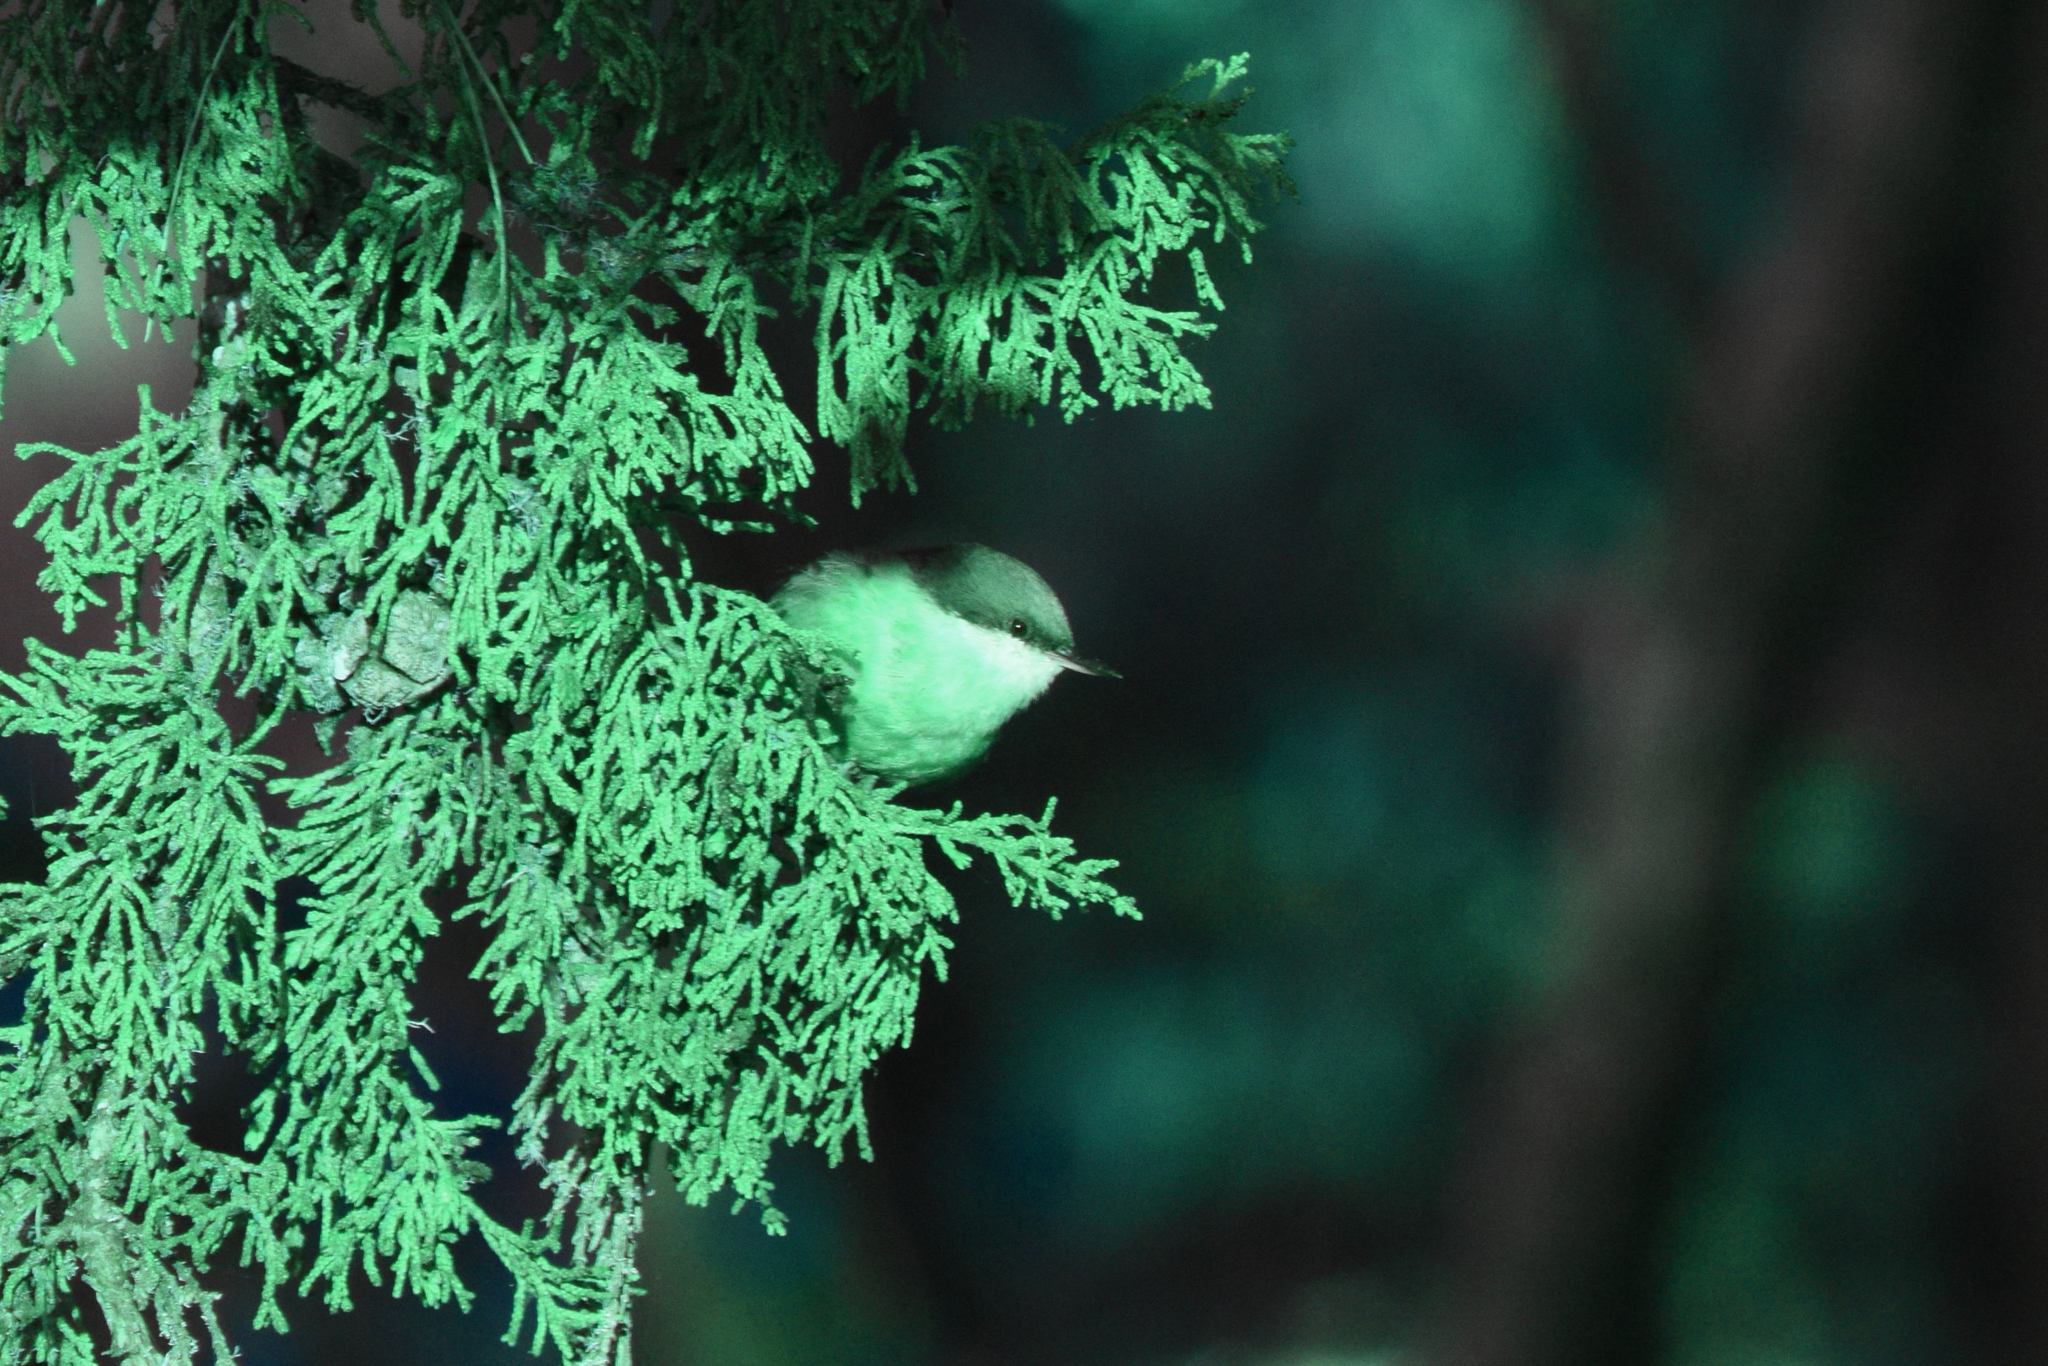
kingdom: Animalia
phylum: Chordata
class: Aves
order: Passeriformes
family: Sittidae
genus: Sitta
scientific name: Sitta pygmaea
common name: Pygmy nuthatch
